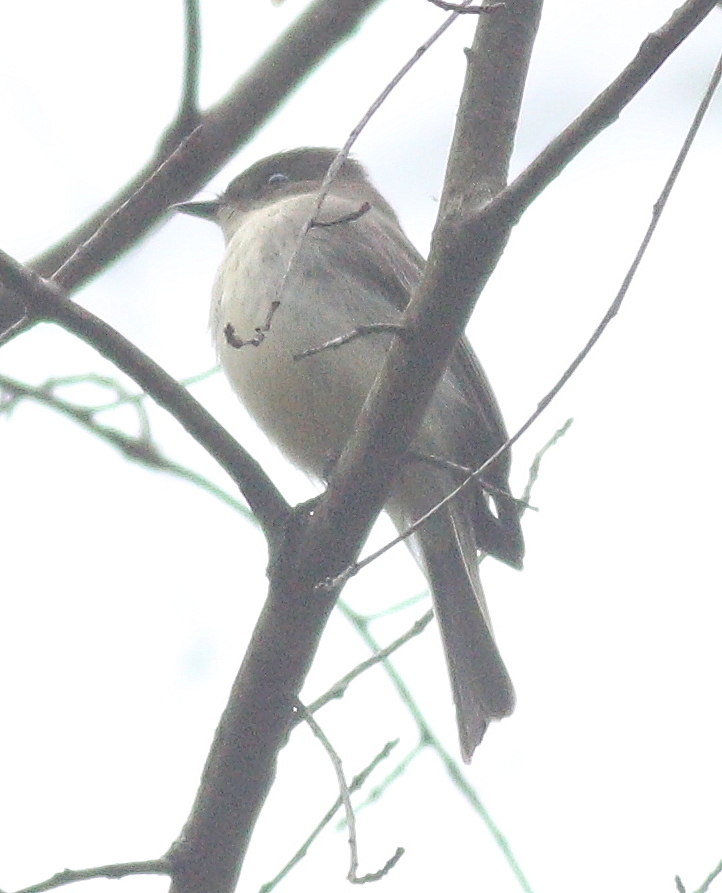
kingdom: Animalia
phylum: Chordata
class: Aves
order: Passeriformes
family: Tyrannidae
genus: Sayornis
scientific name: Sayornis phoebe
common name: Eastern phoebe
